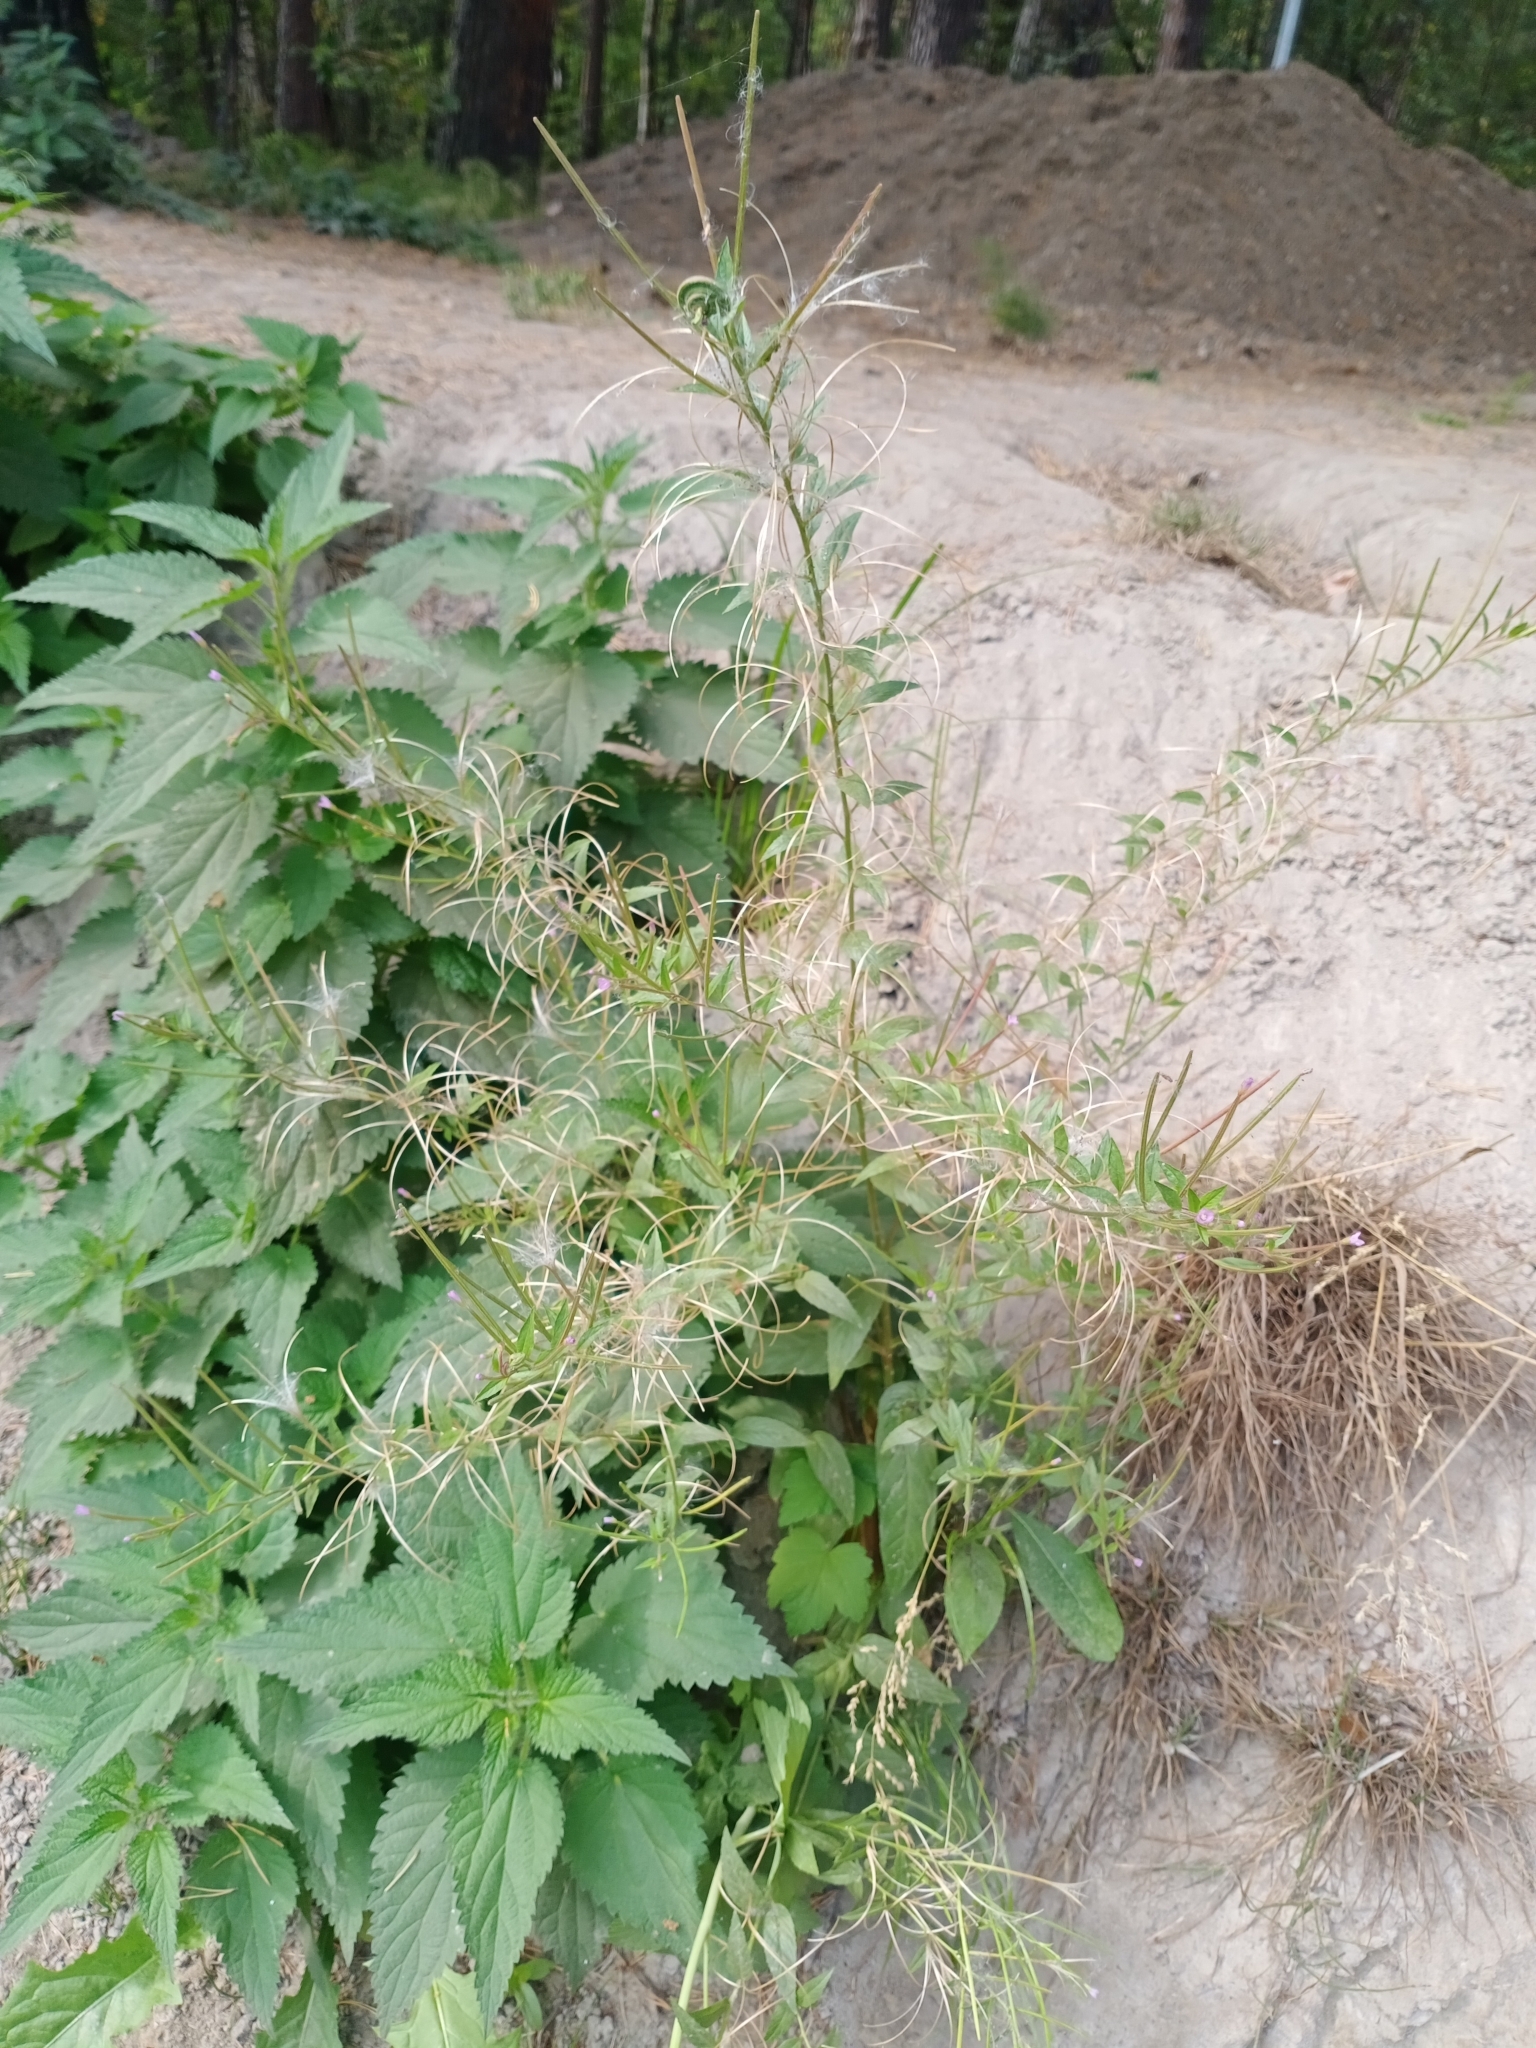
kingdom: Plantae
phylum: Tracheophyta
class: Magnoliopsida
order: Myrtales
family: Onagraceae
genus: Epilobium
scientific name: Epilobium ciliatum
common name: American willowherb
